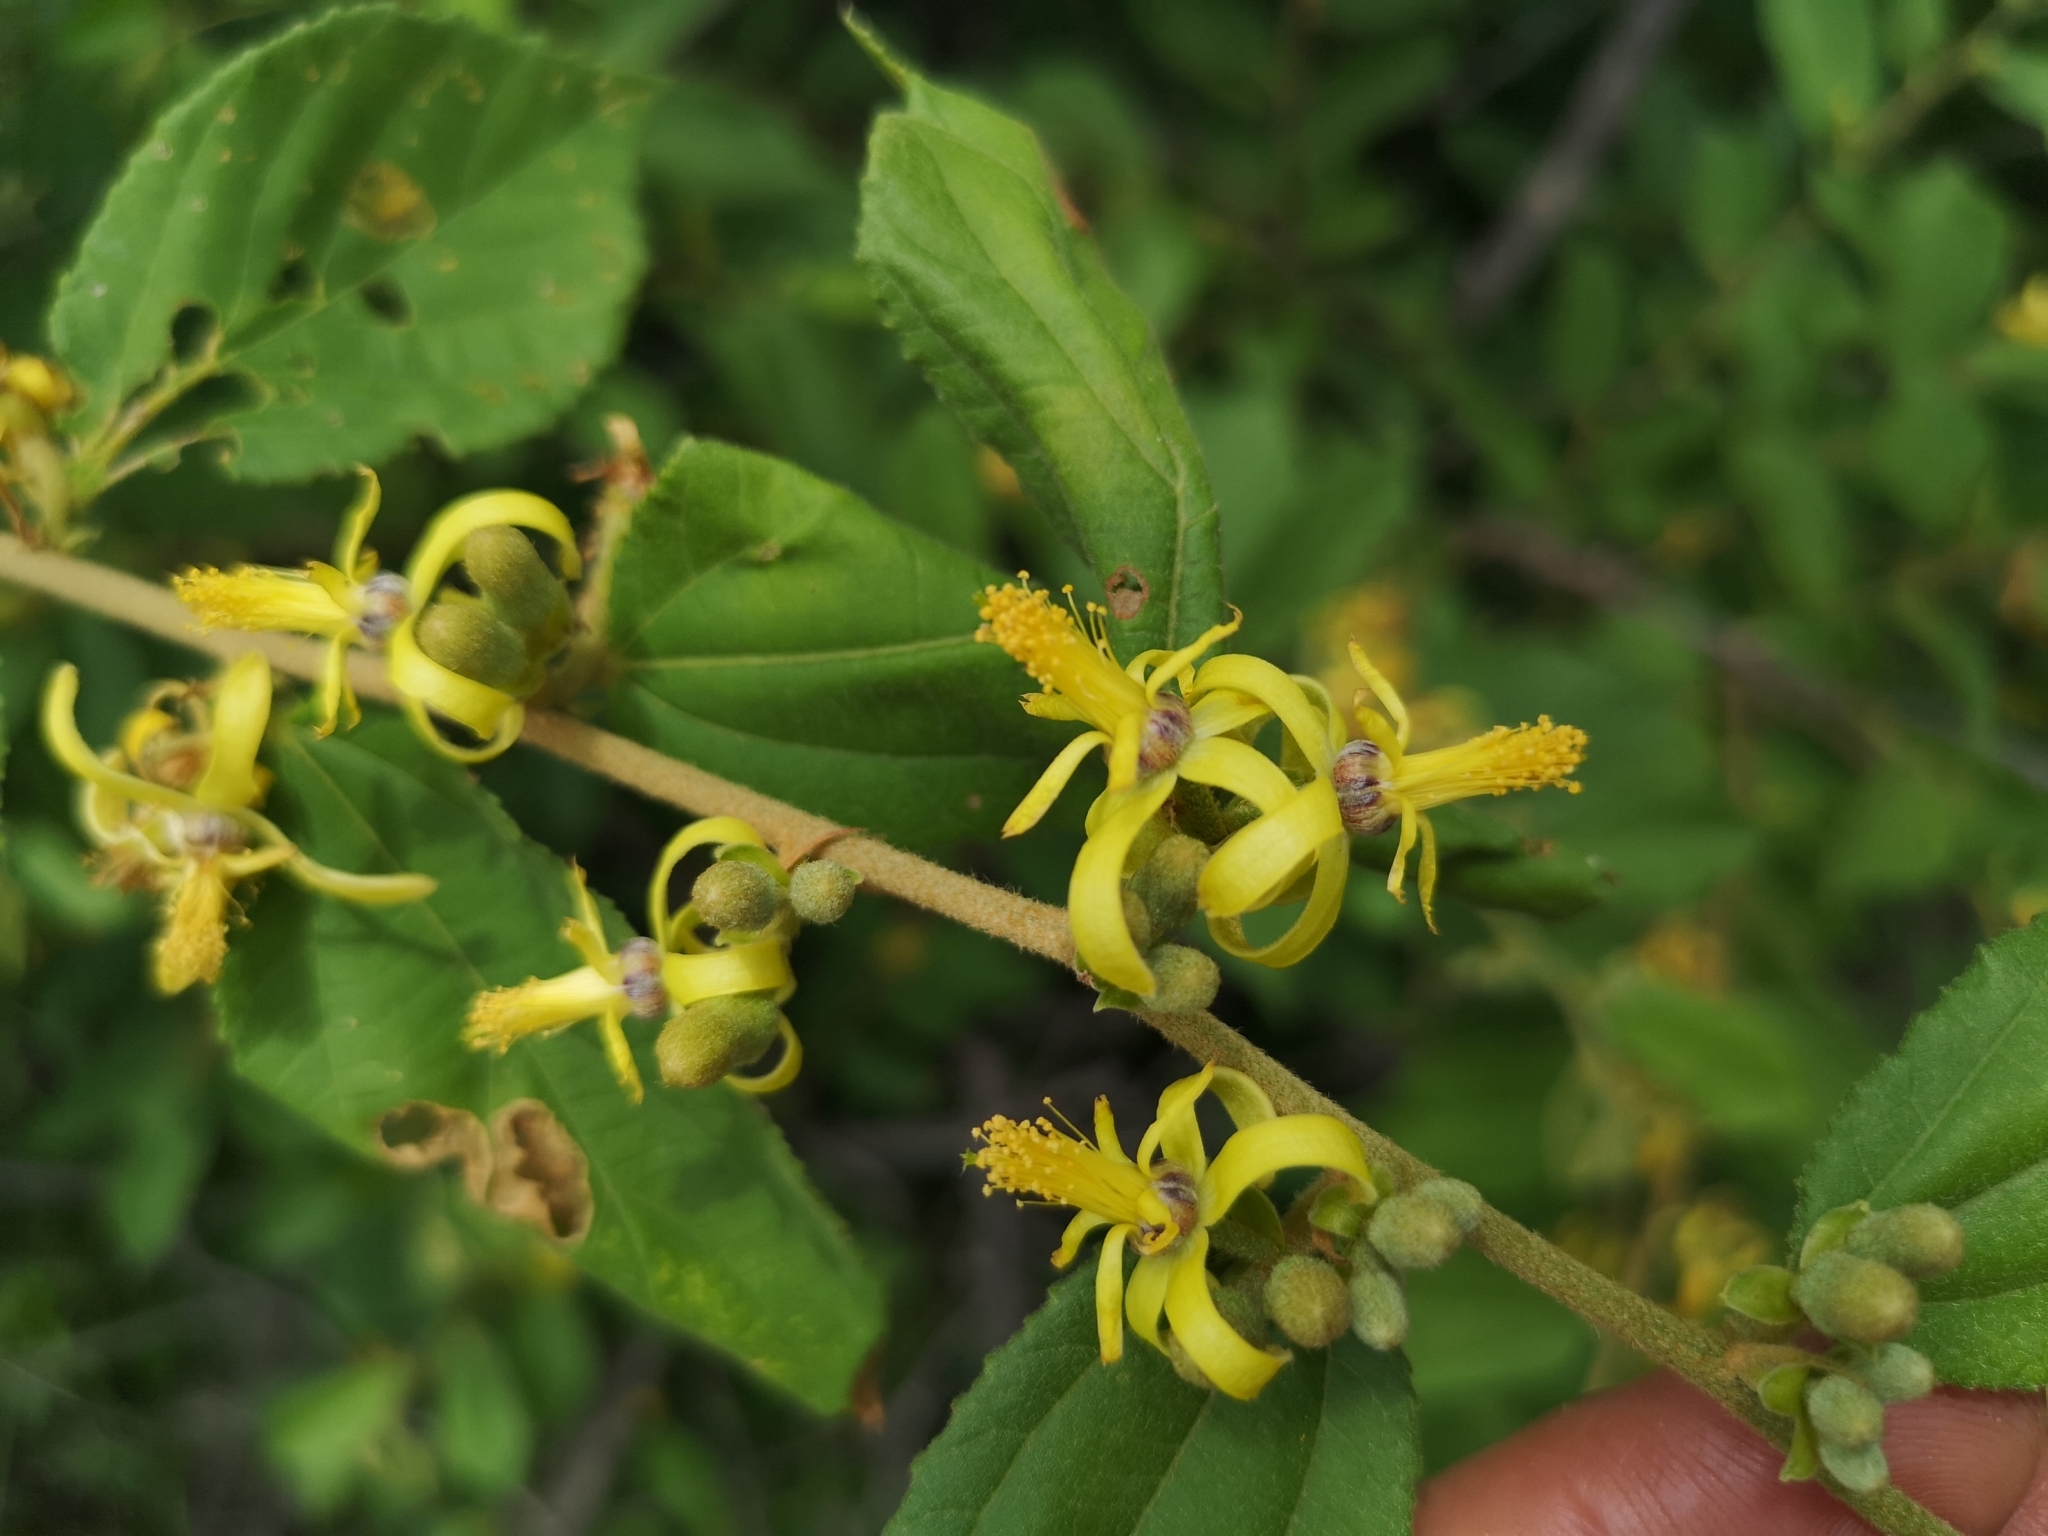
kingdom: Plantae
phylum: Tracheophyta
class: Magnoliopsida
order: Malvales
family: Malvaceae
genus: Grewia
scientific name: Grewia flavescens
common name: Sandpaper raisin
